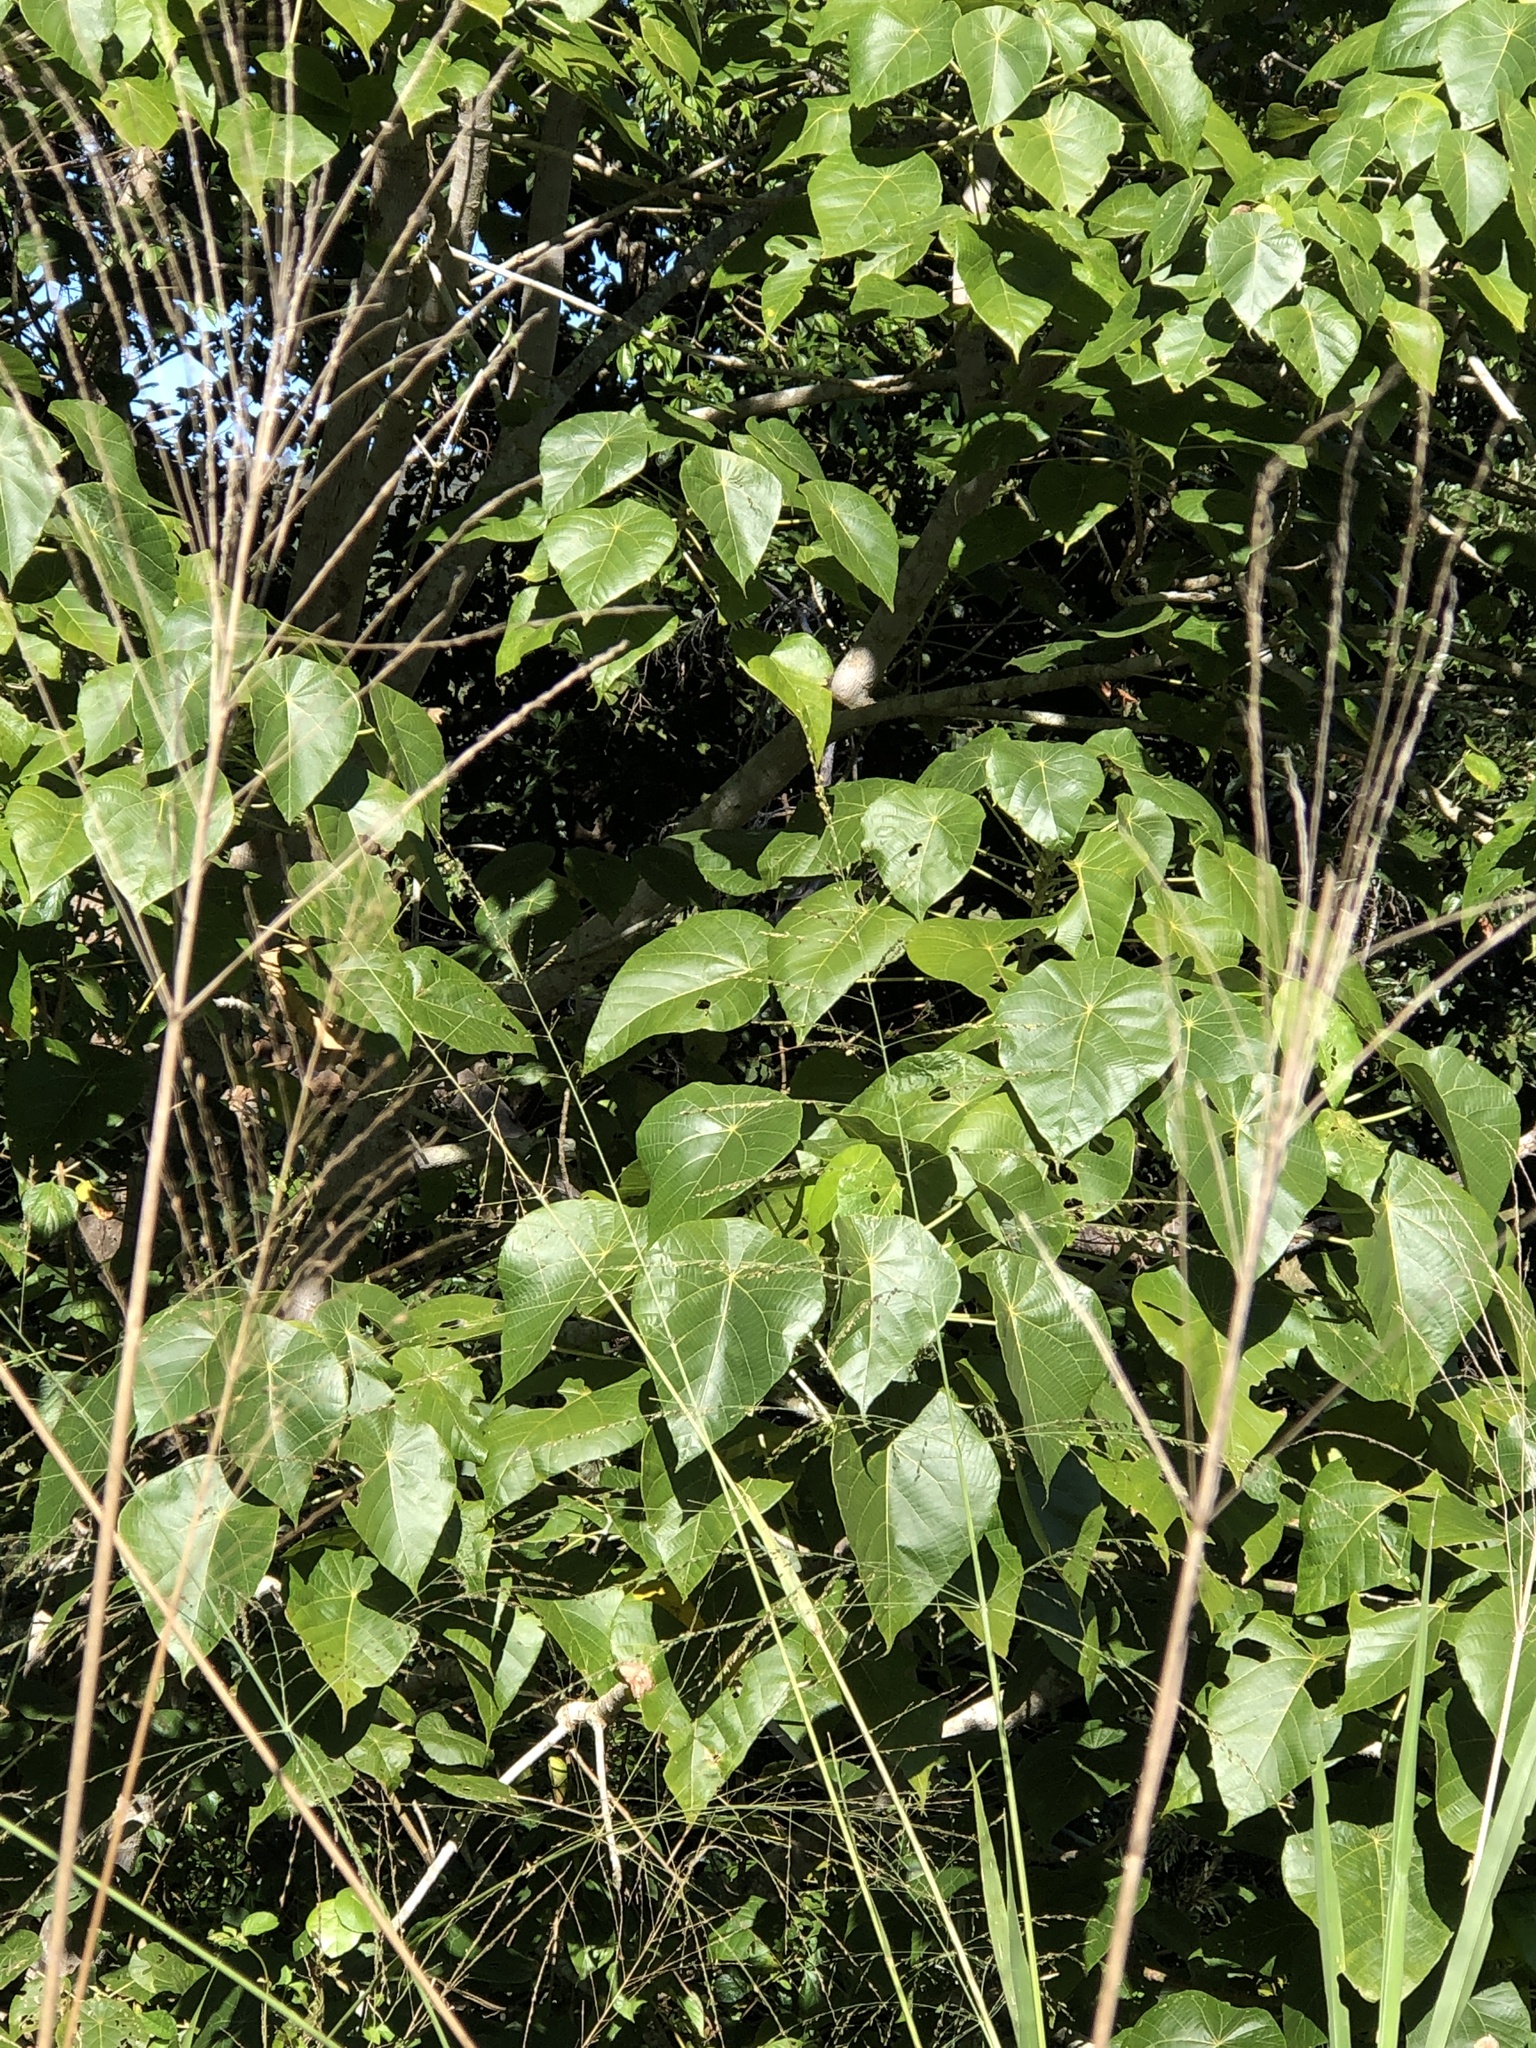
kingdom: Plantae
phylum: Tracheophyta
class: Magnoliopsida
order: Malpighiales
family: Euphorbiaceae
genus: Macaranga
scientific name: Macaranga tanarius
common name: Parasol leaf tree
